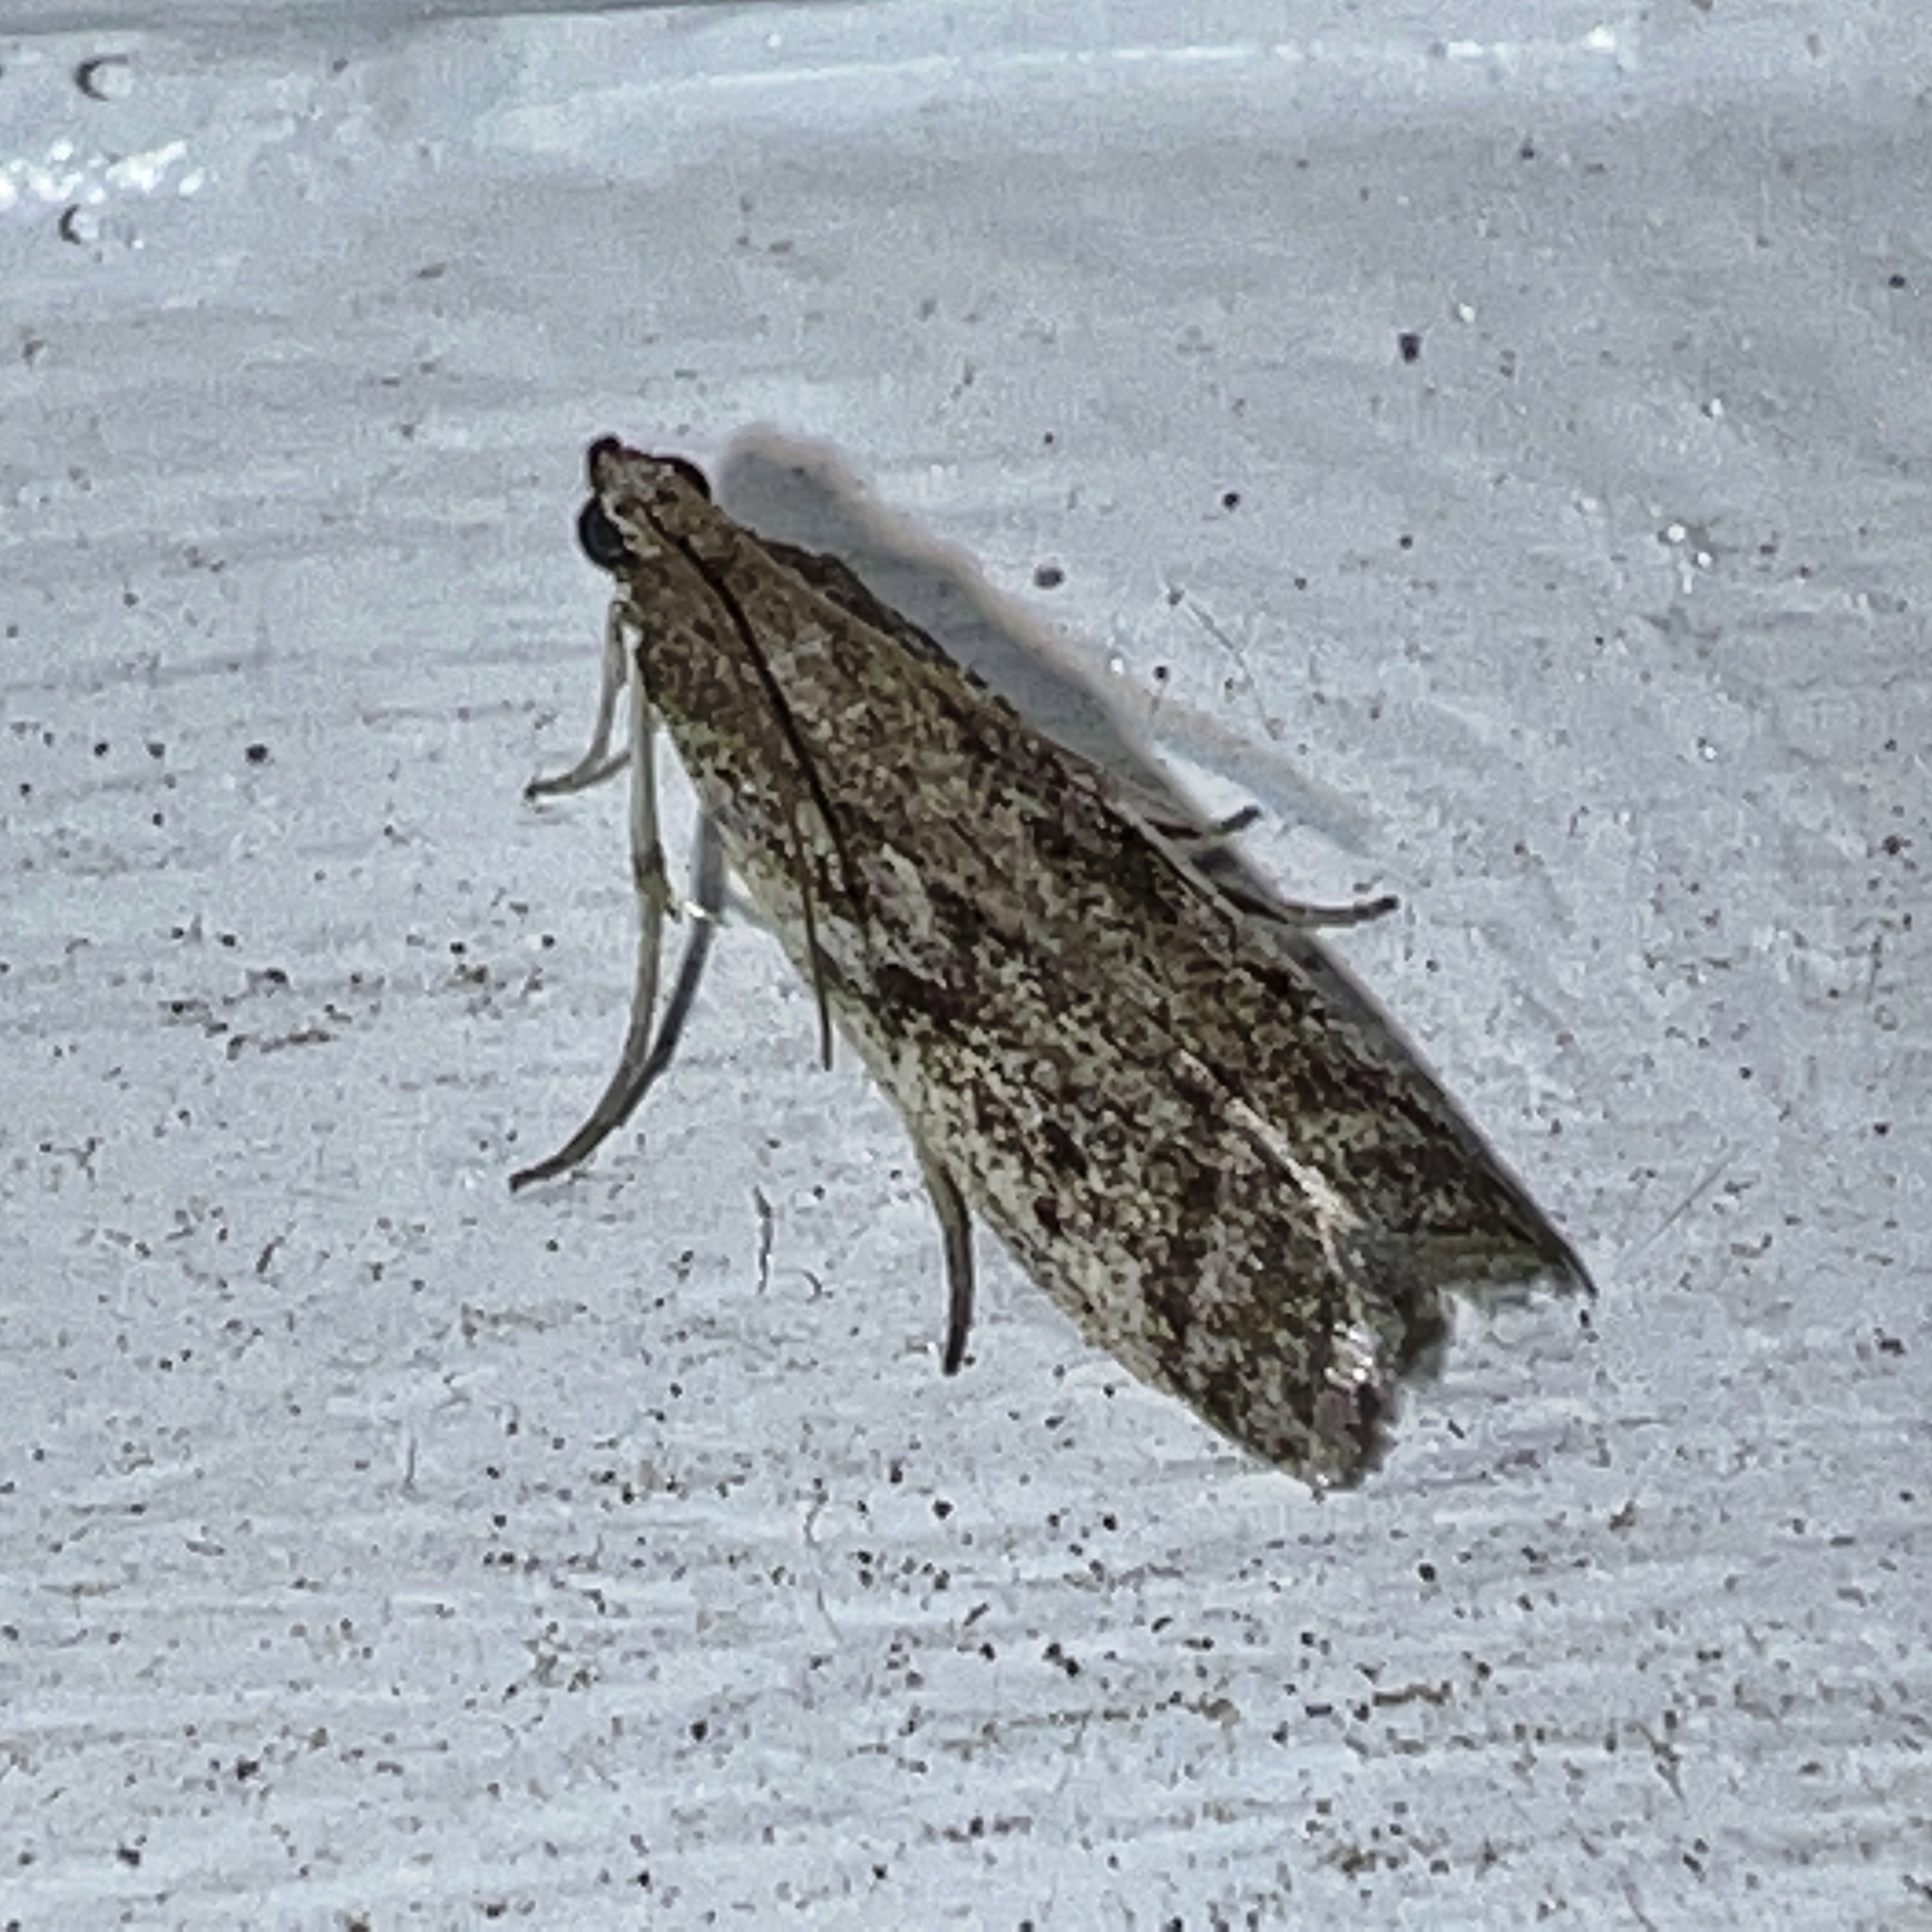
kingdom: Animalia
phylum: Arthropoda
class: Insecta
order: Lepidoptera
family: Pyralidae
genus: Phycitodes
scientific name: Phycitodes mucidellus
